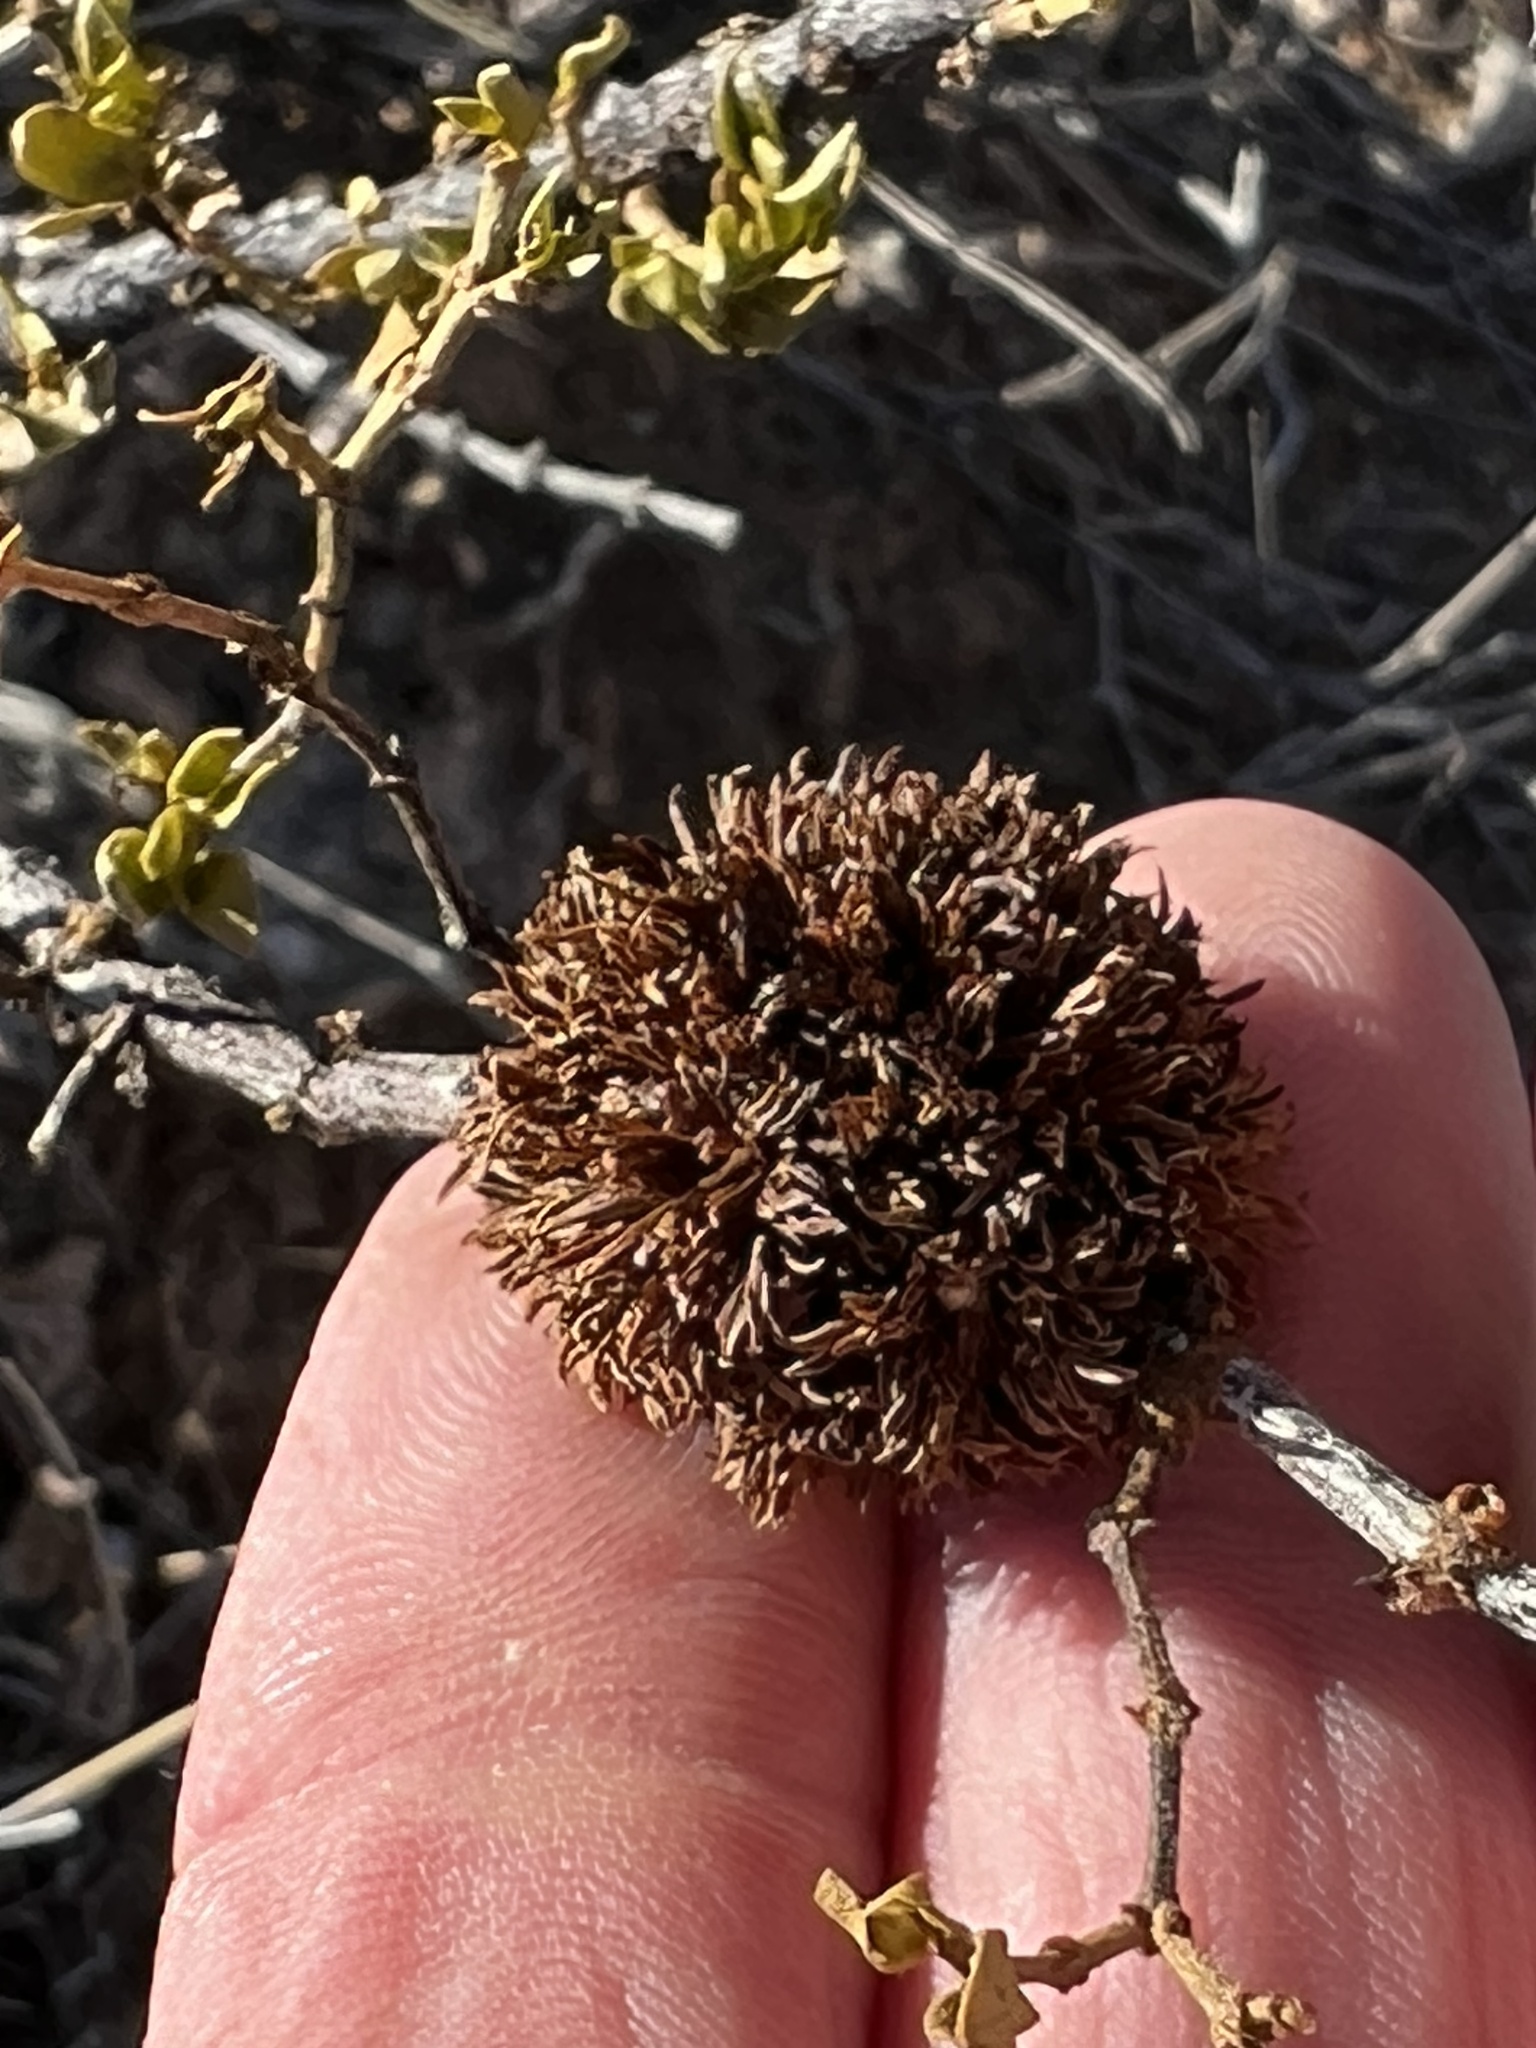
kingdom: Animalia
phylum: Arthropoda
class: Insecta
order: Diptera
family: Cecidomyiidae
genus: Asphondylia
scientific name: Asphondylia auripila
